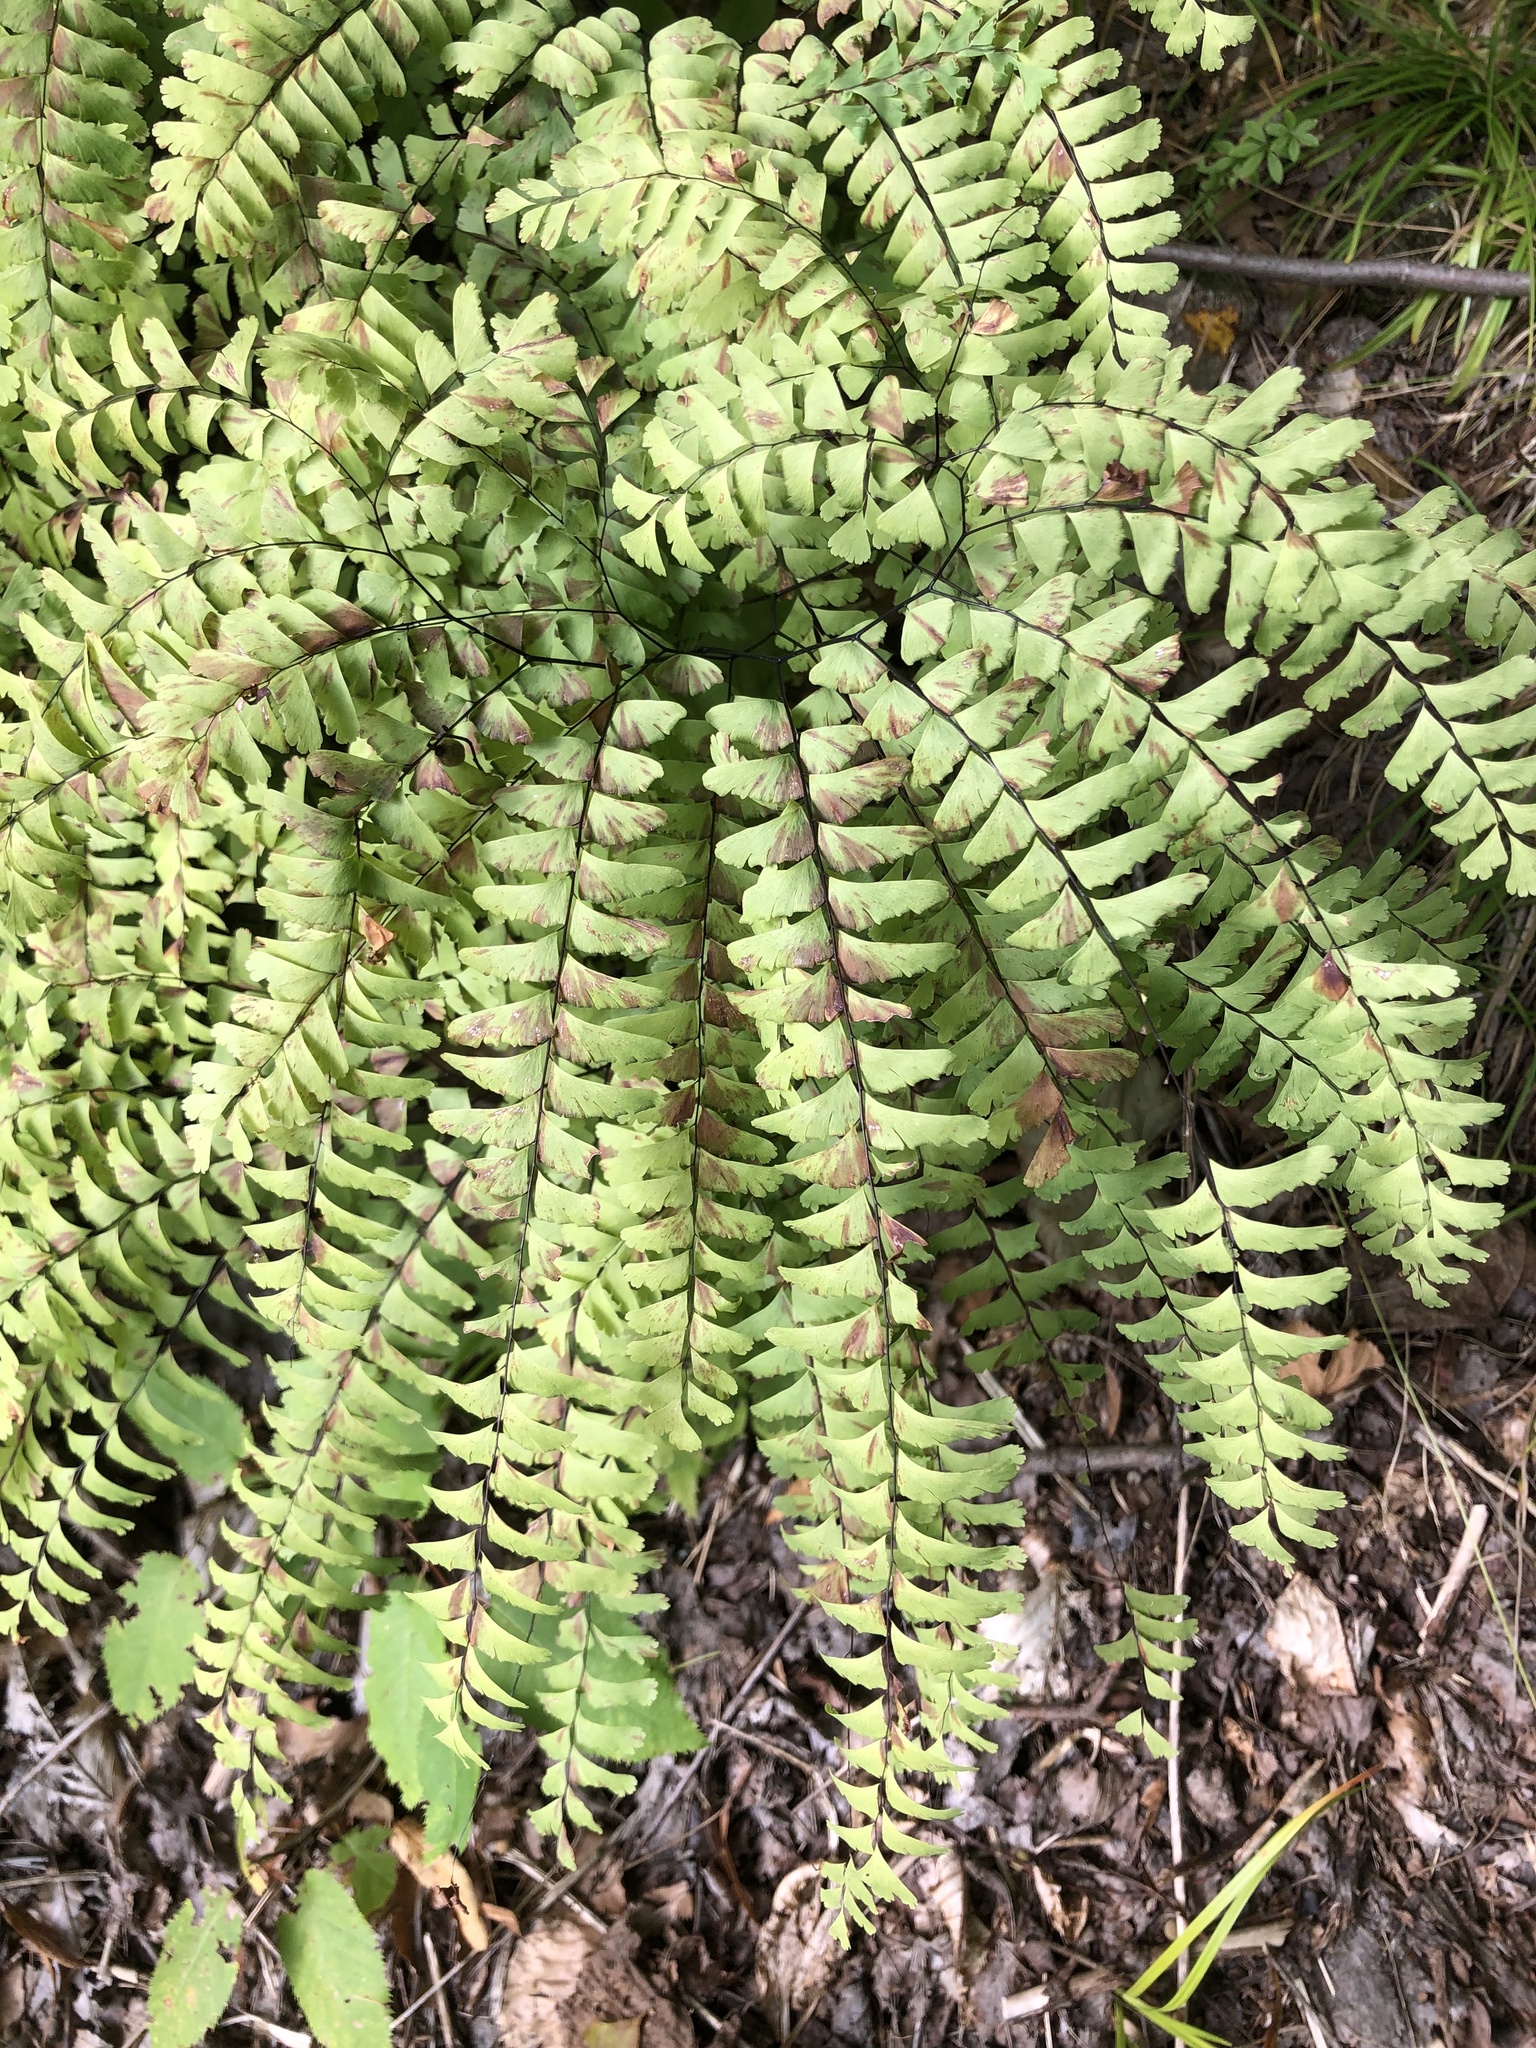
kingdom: Plantae
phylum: Tracheophyta
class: Polypodiopsida
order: Polypodiales
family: Pteridaceae
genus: Adiantum
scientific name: Adiantum pedatum
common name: Five-finger fern
